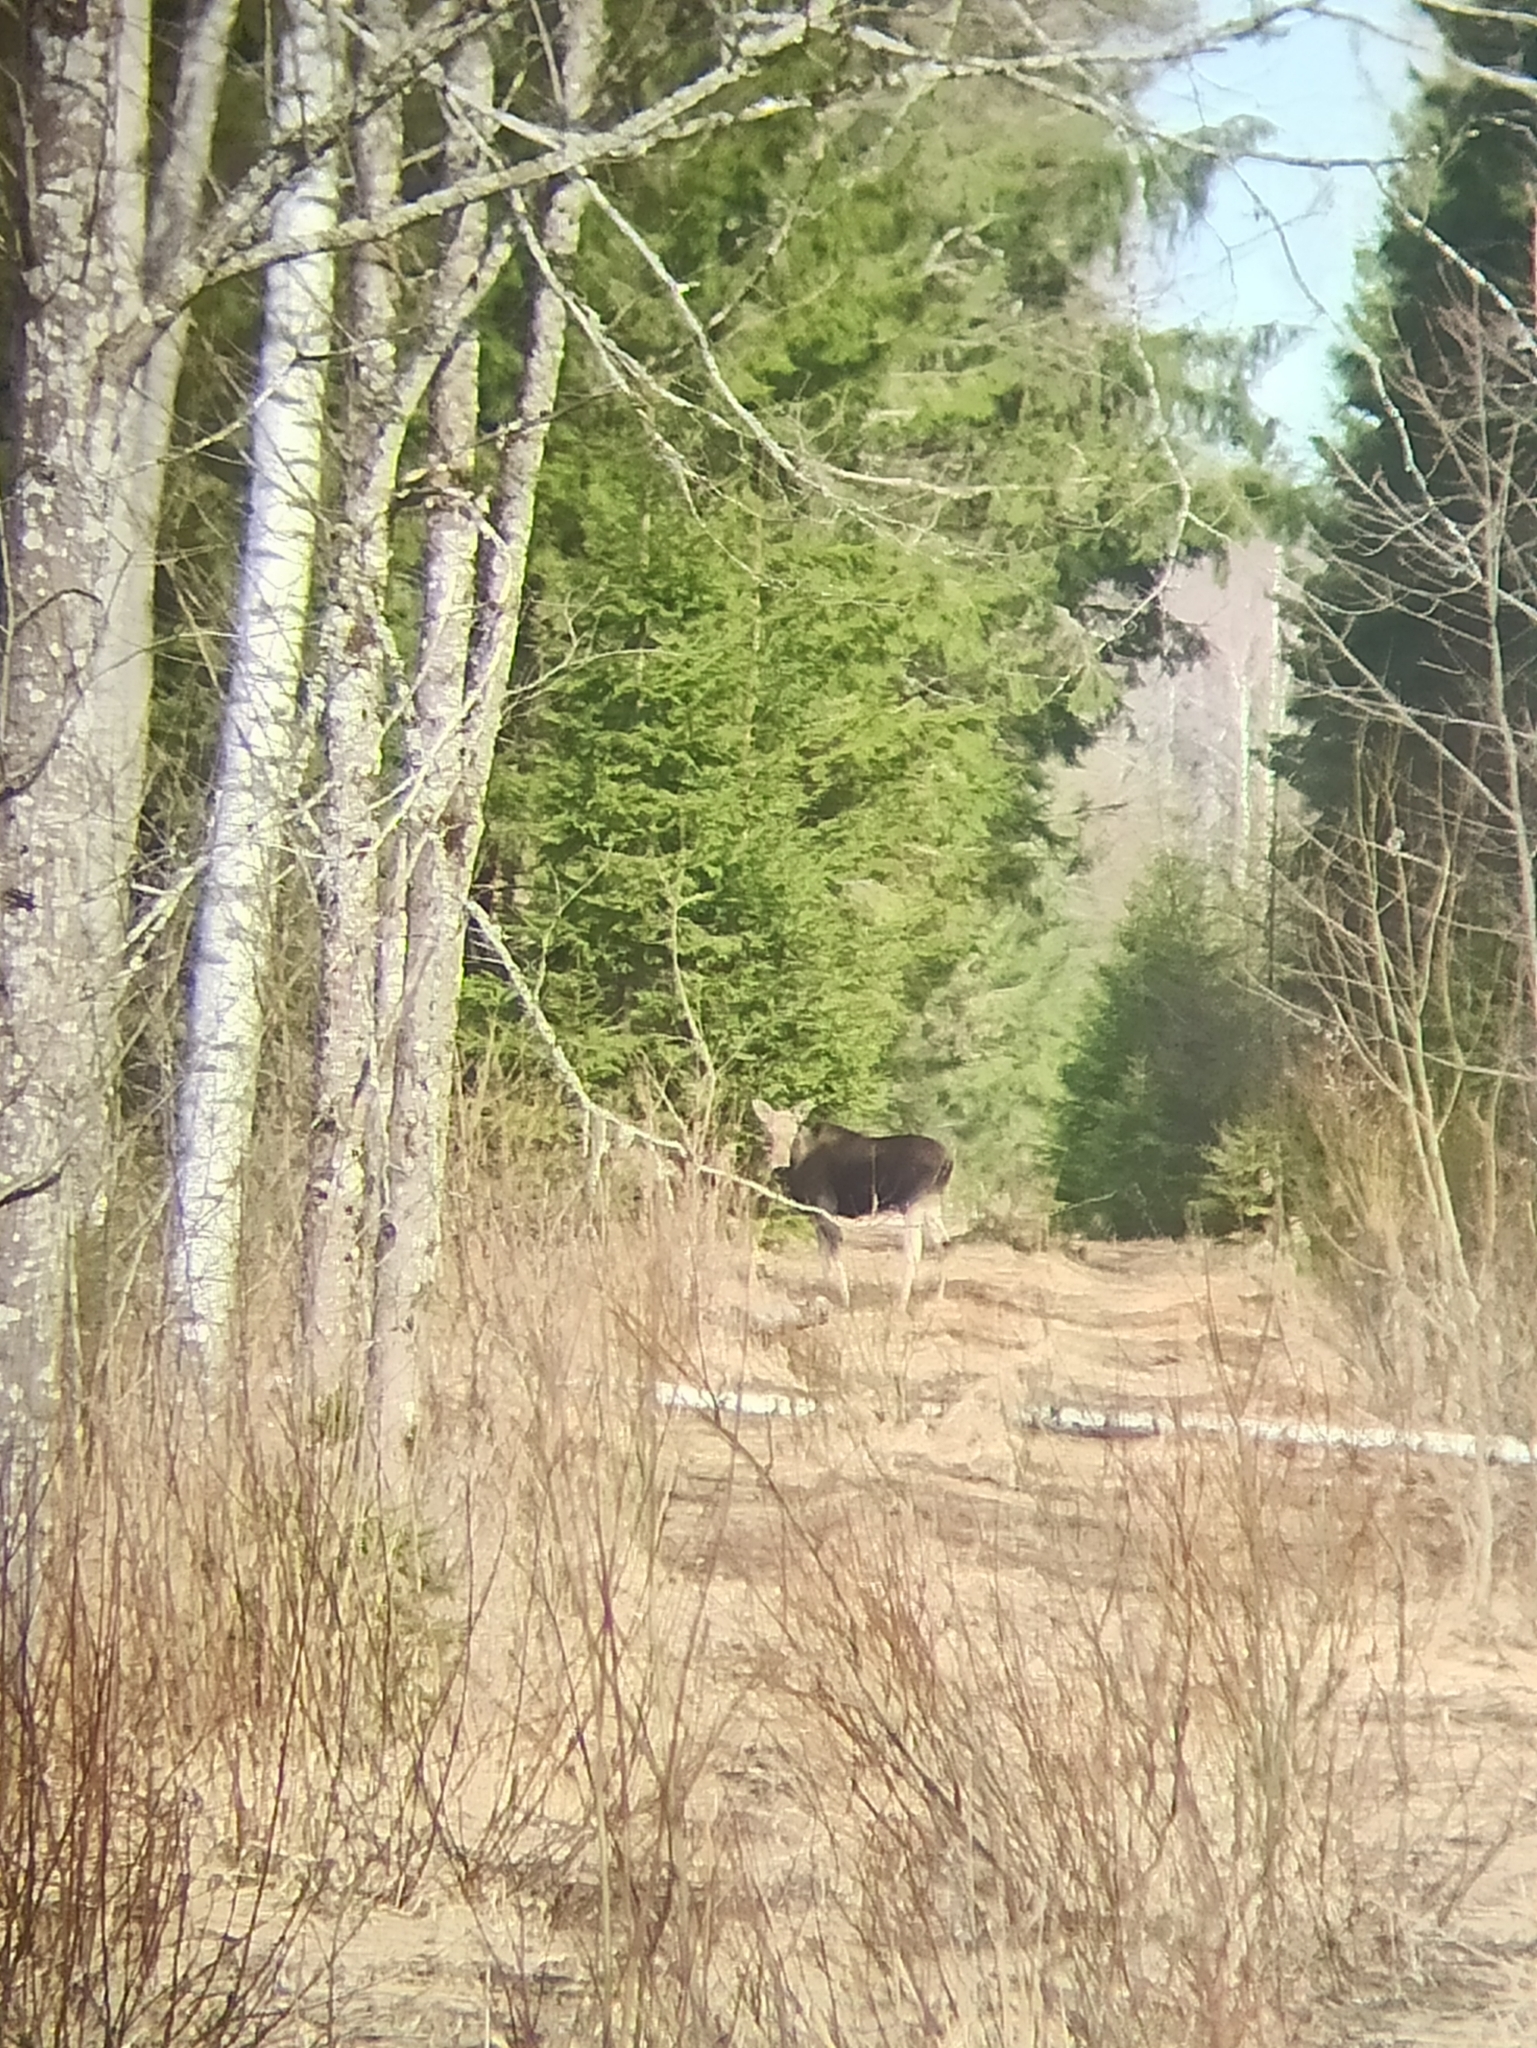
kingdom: Animalia
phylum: Chordata
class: Mammalia
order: Artiodactyla
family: Cervidae
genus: Alces
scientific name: Alces alces
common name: Moose
